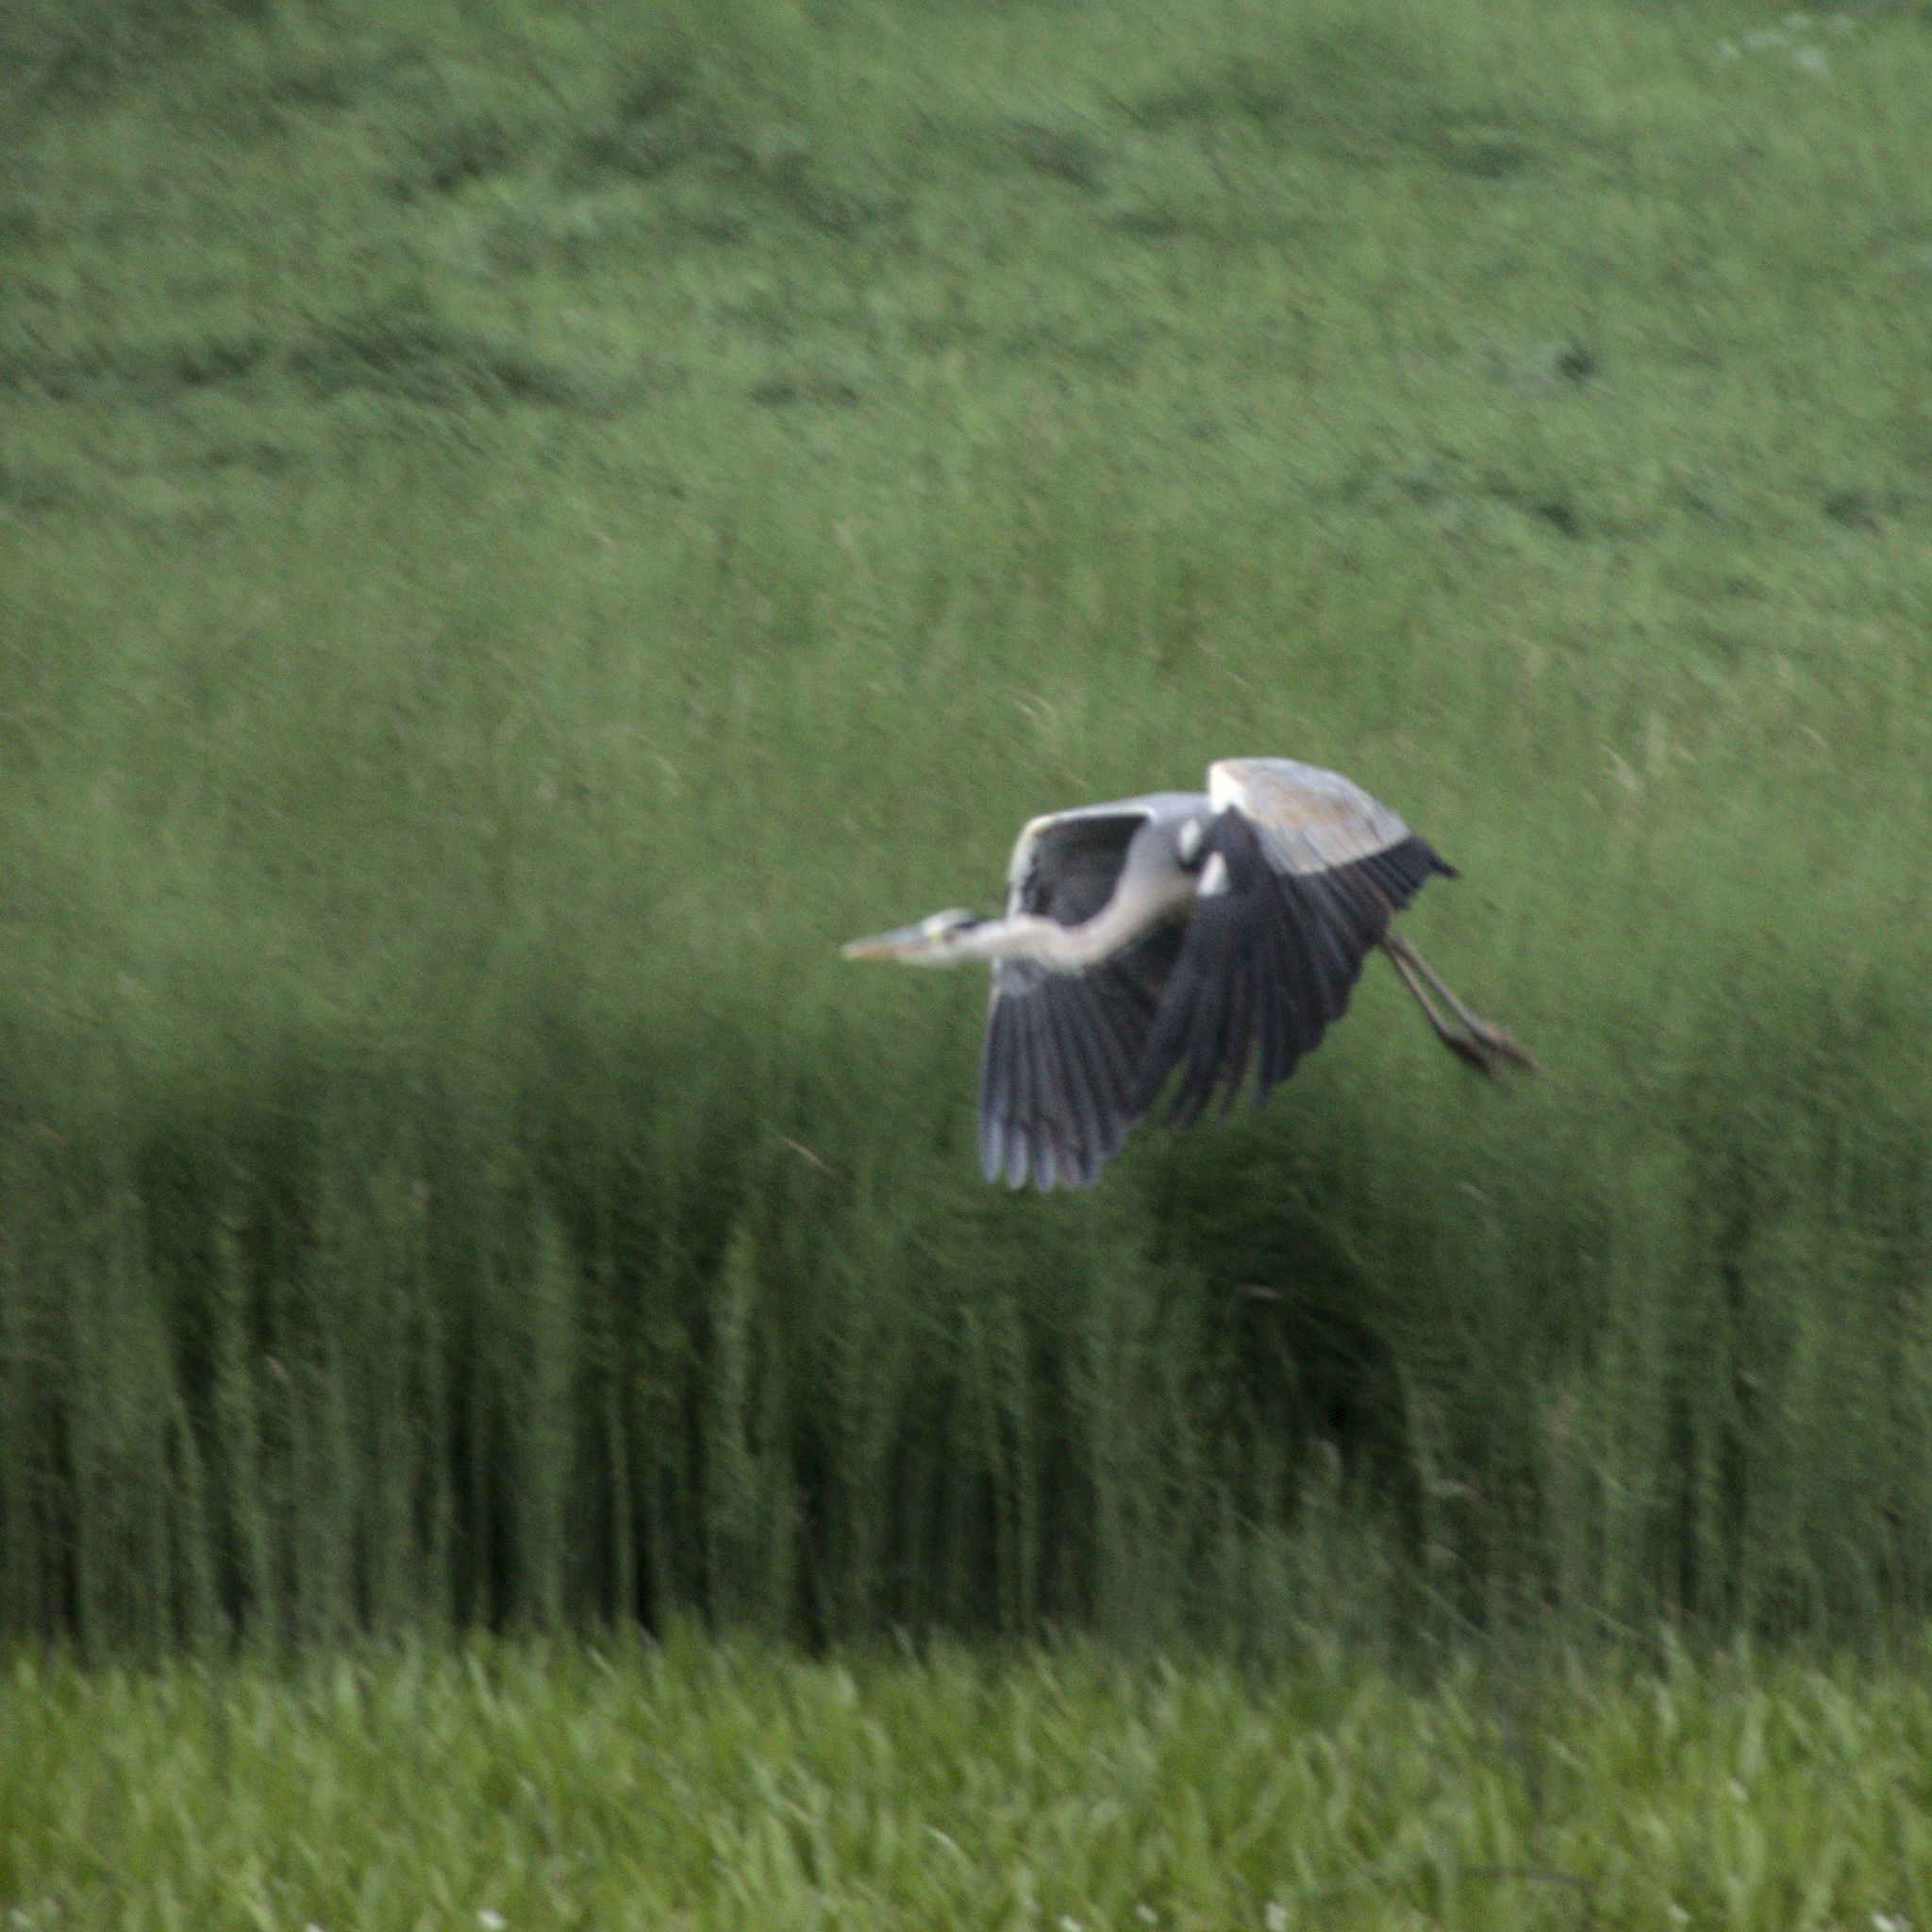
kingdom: Animalia
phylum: Chordata
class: Aves
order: Pelecaniformes
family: Ardeidae
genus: Ardea
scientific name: Ardea cinerea
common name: Grey heron
